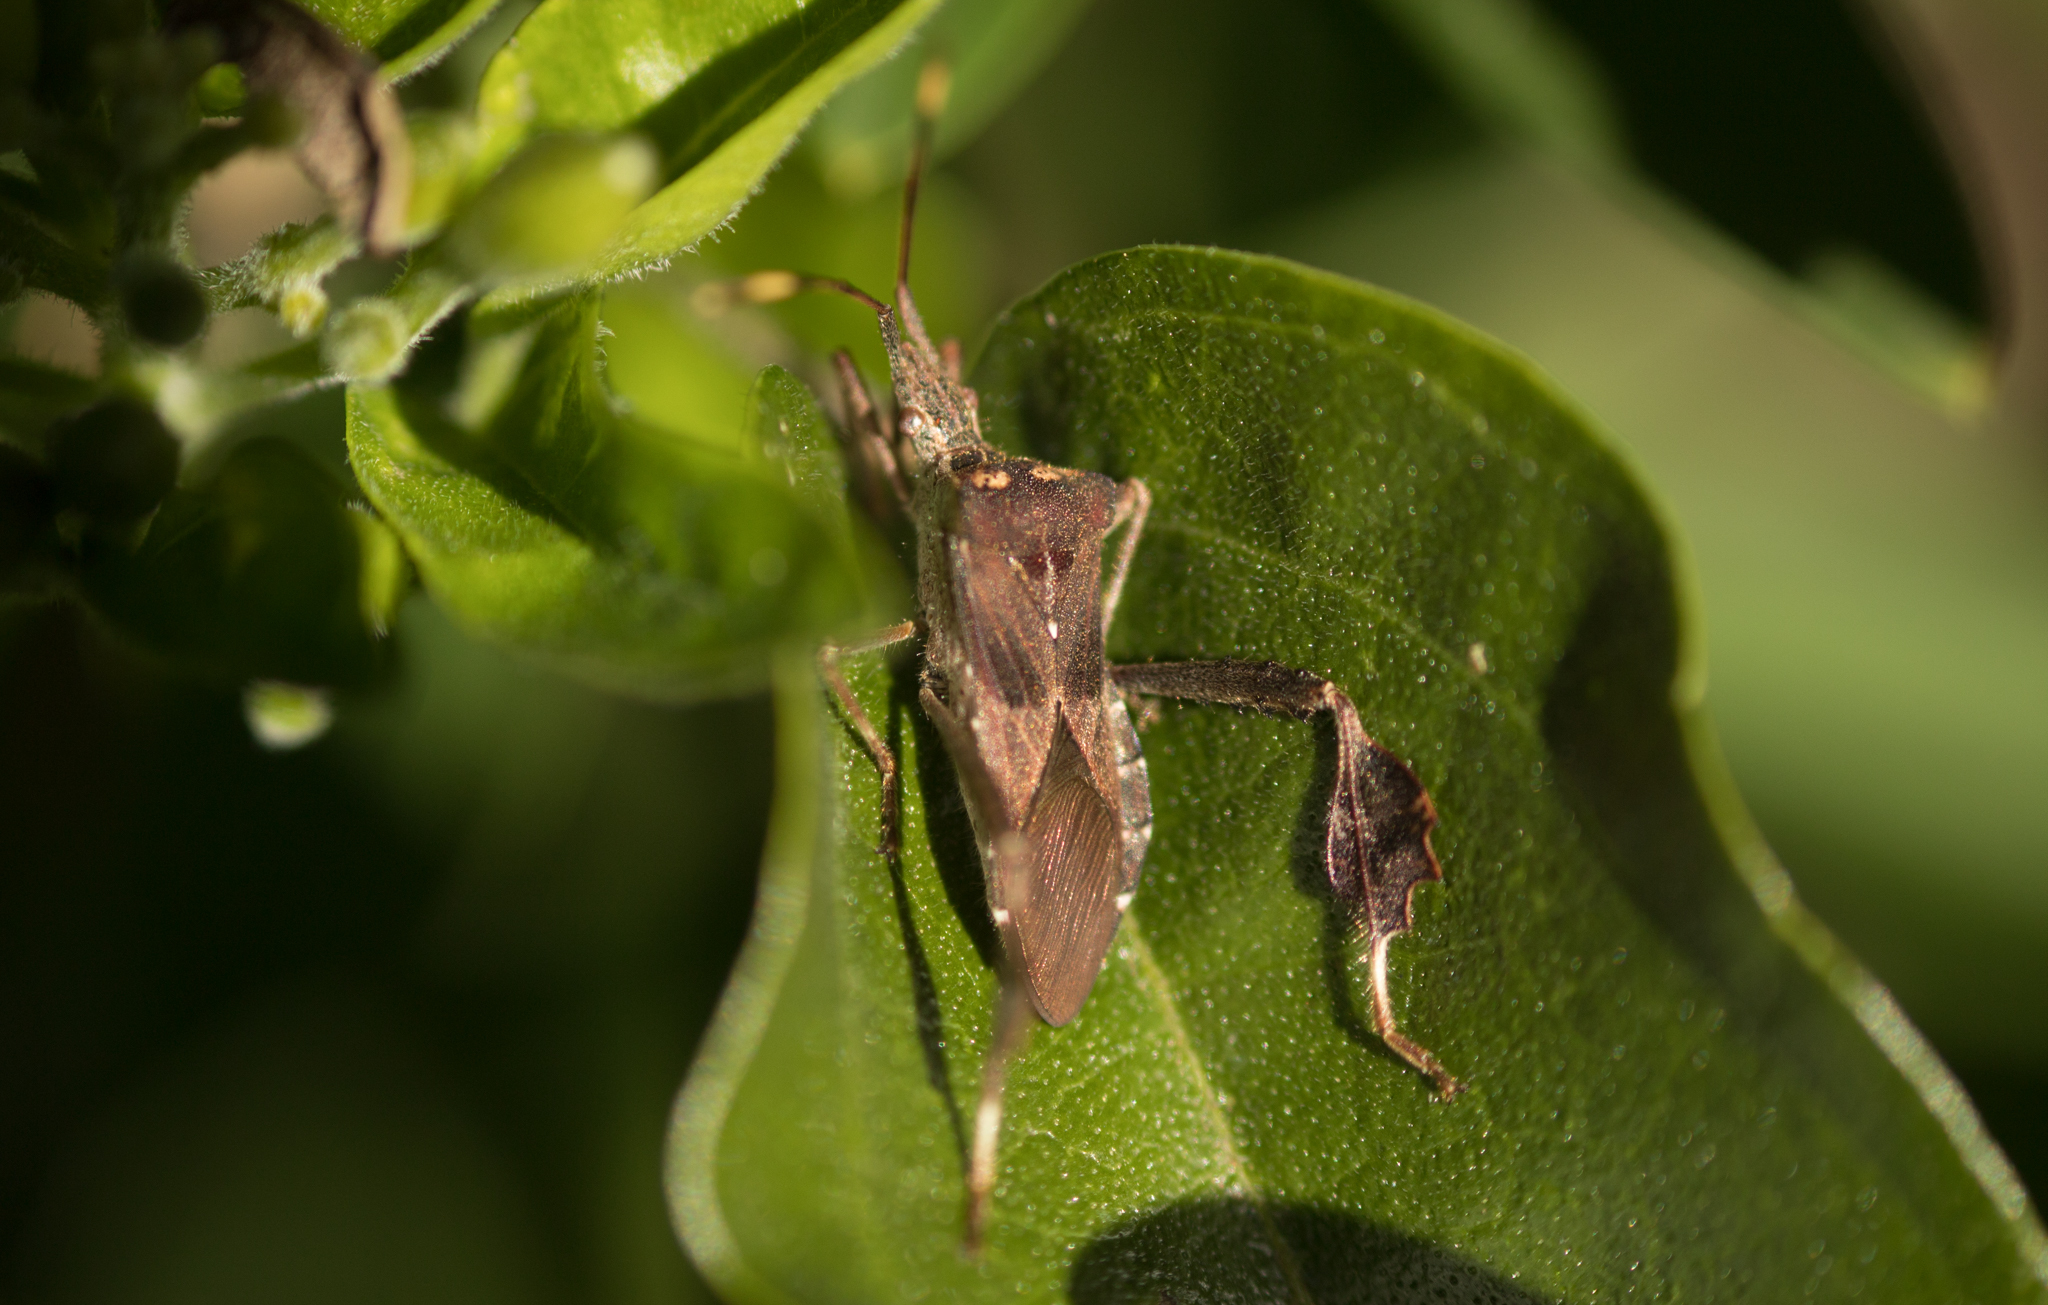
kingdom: Animalia
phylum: Arthropoda
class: Insecta
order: Hemiptera
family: Coreidae
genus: Leptoglossus
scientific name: Leptoglossus neovexillatus
